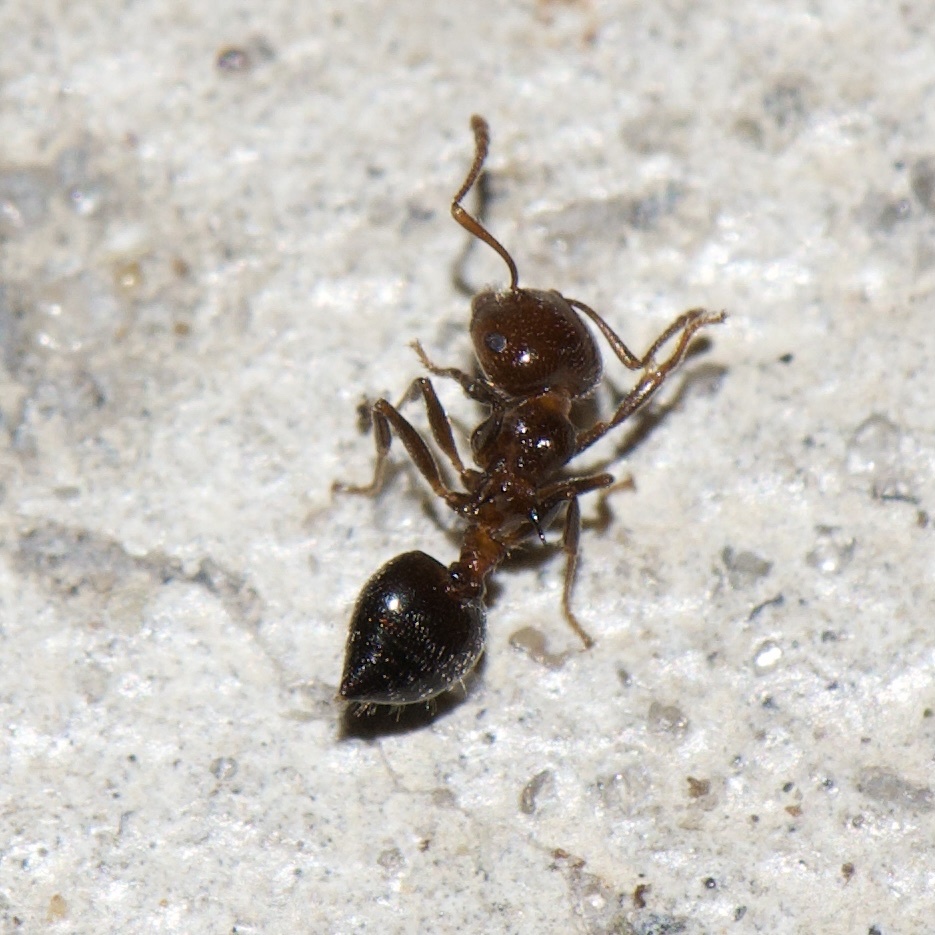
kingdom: Animalia
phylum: Arthropoda
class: Insecta
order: Hymenoptera
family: Formicidae
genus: Crematogaster
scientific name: Crematogaster pilosa
